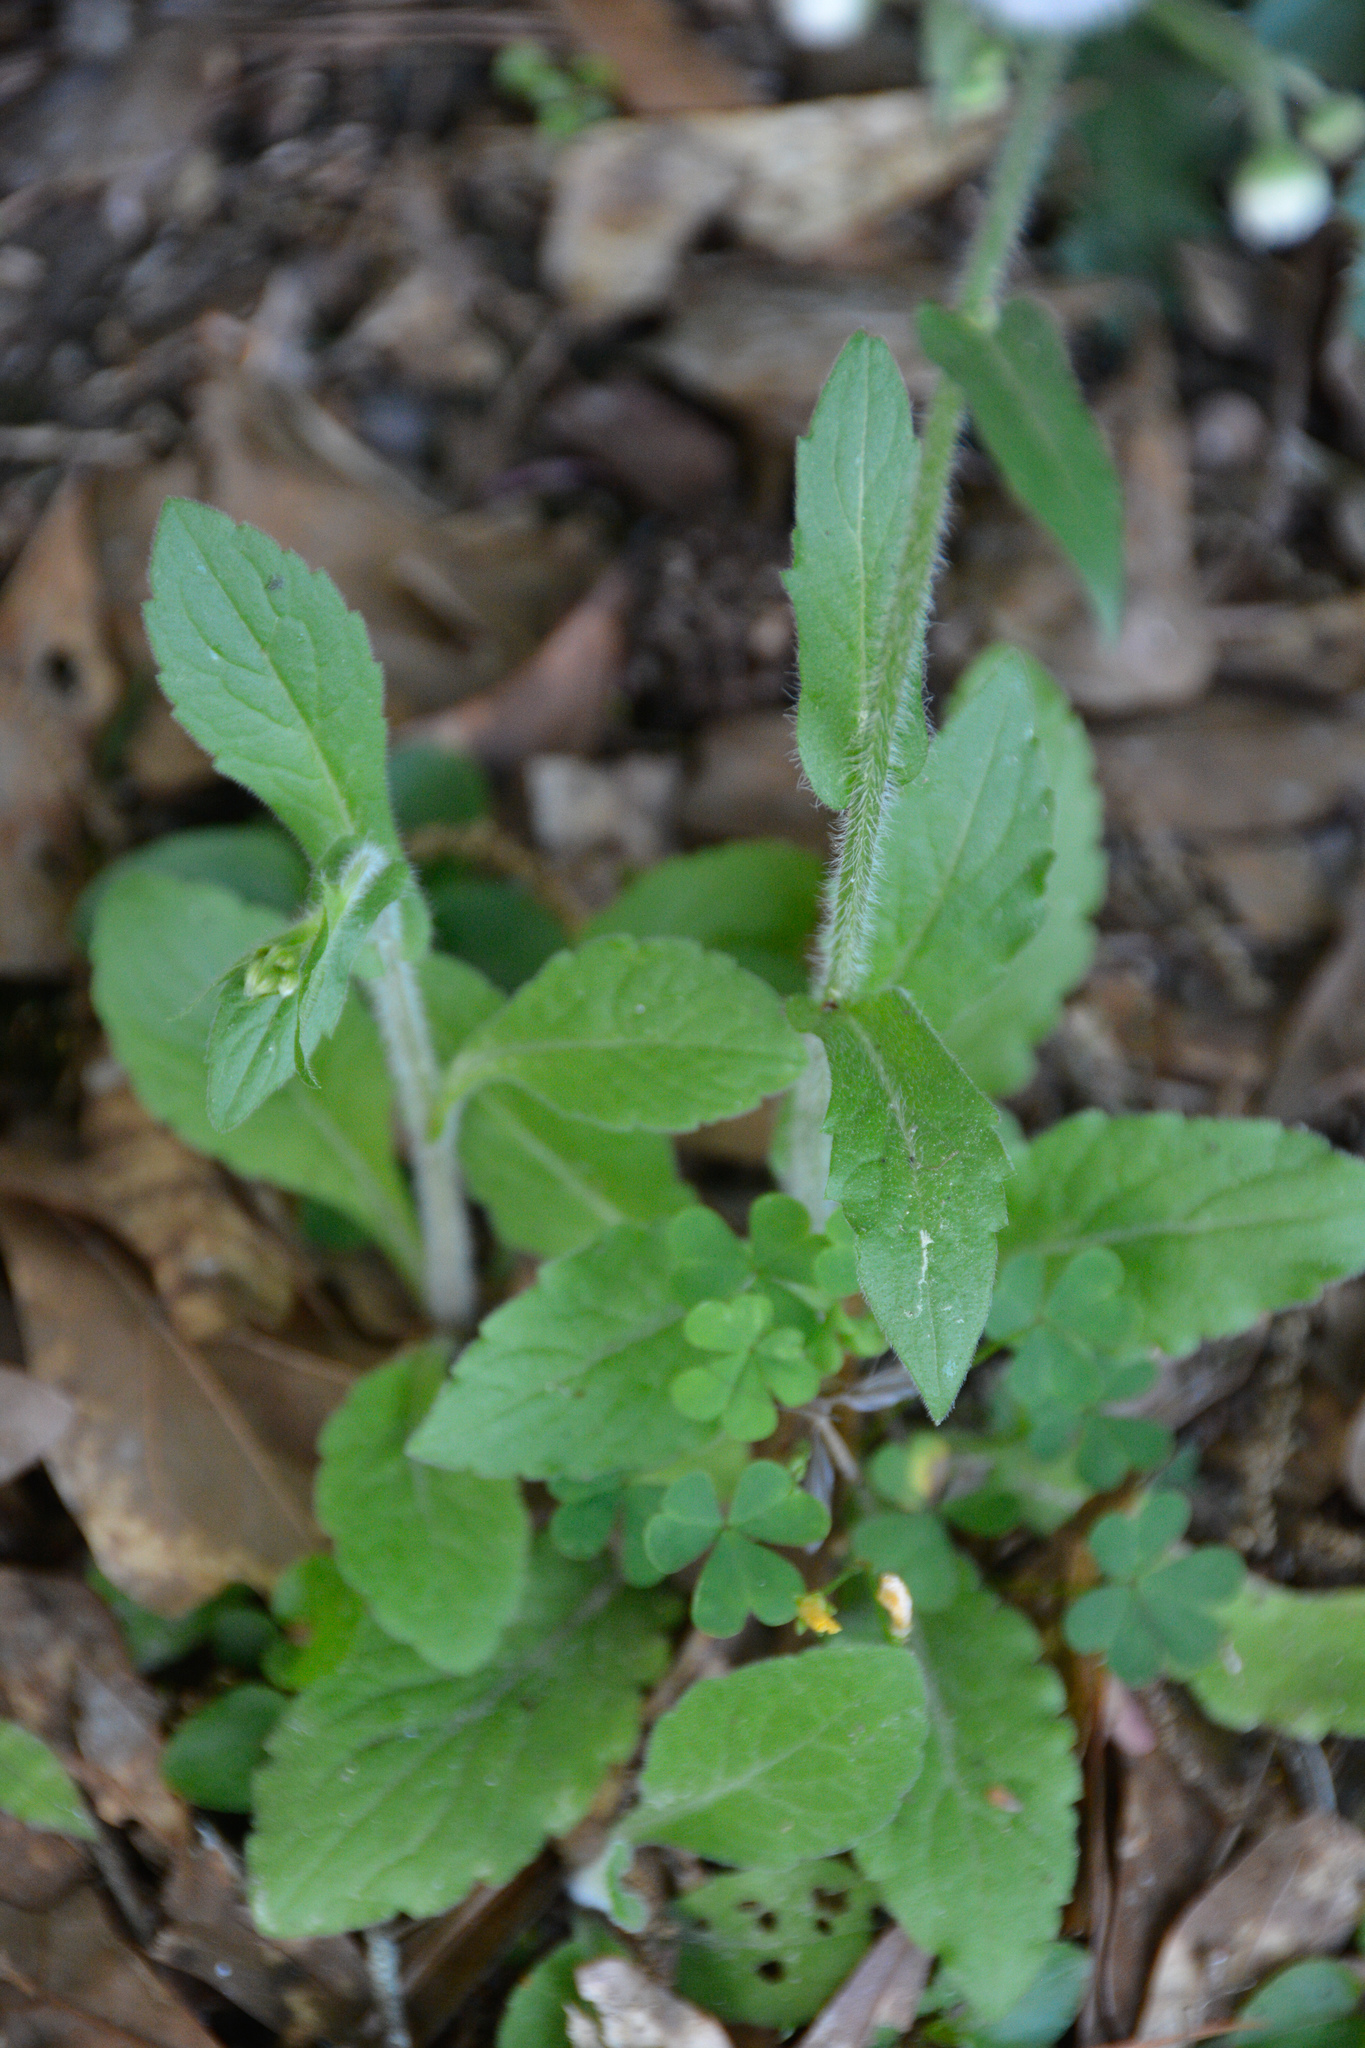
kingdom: Plantae
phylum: Tracheophyta
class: Magnoliopsida
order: Asterales
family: Asteraceae
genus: Erigeron
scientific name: Erigeron philadelphicus
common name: Robin's-plantain
